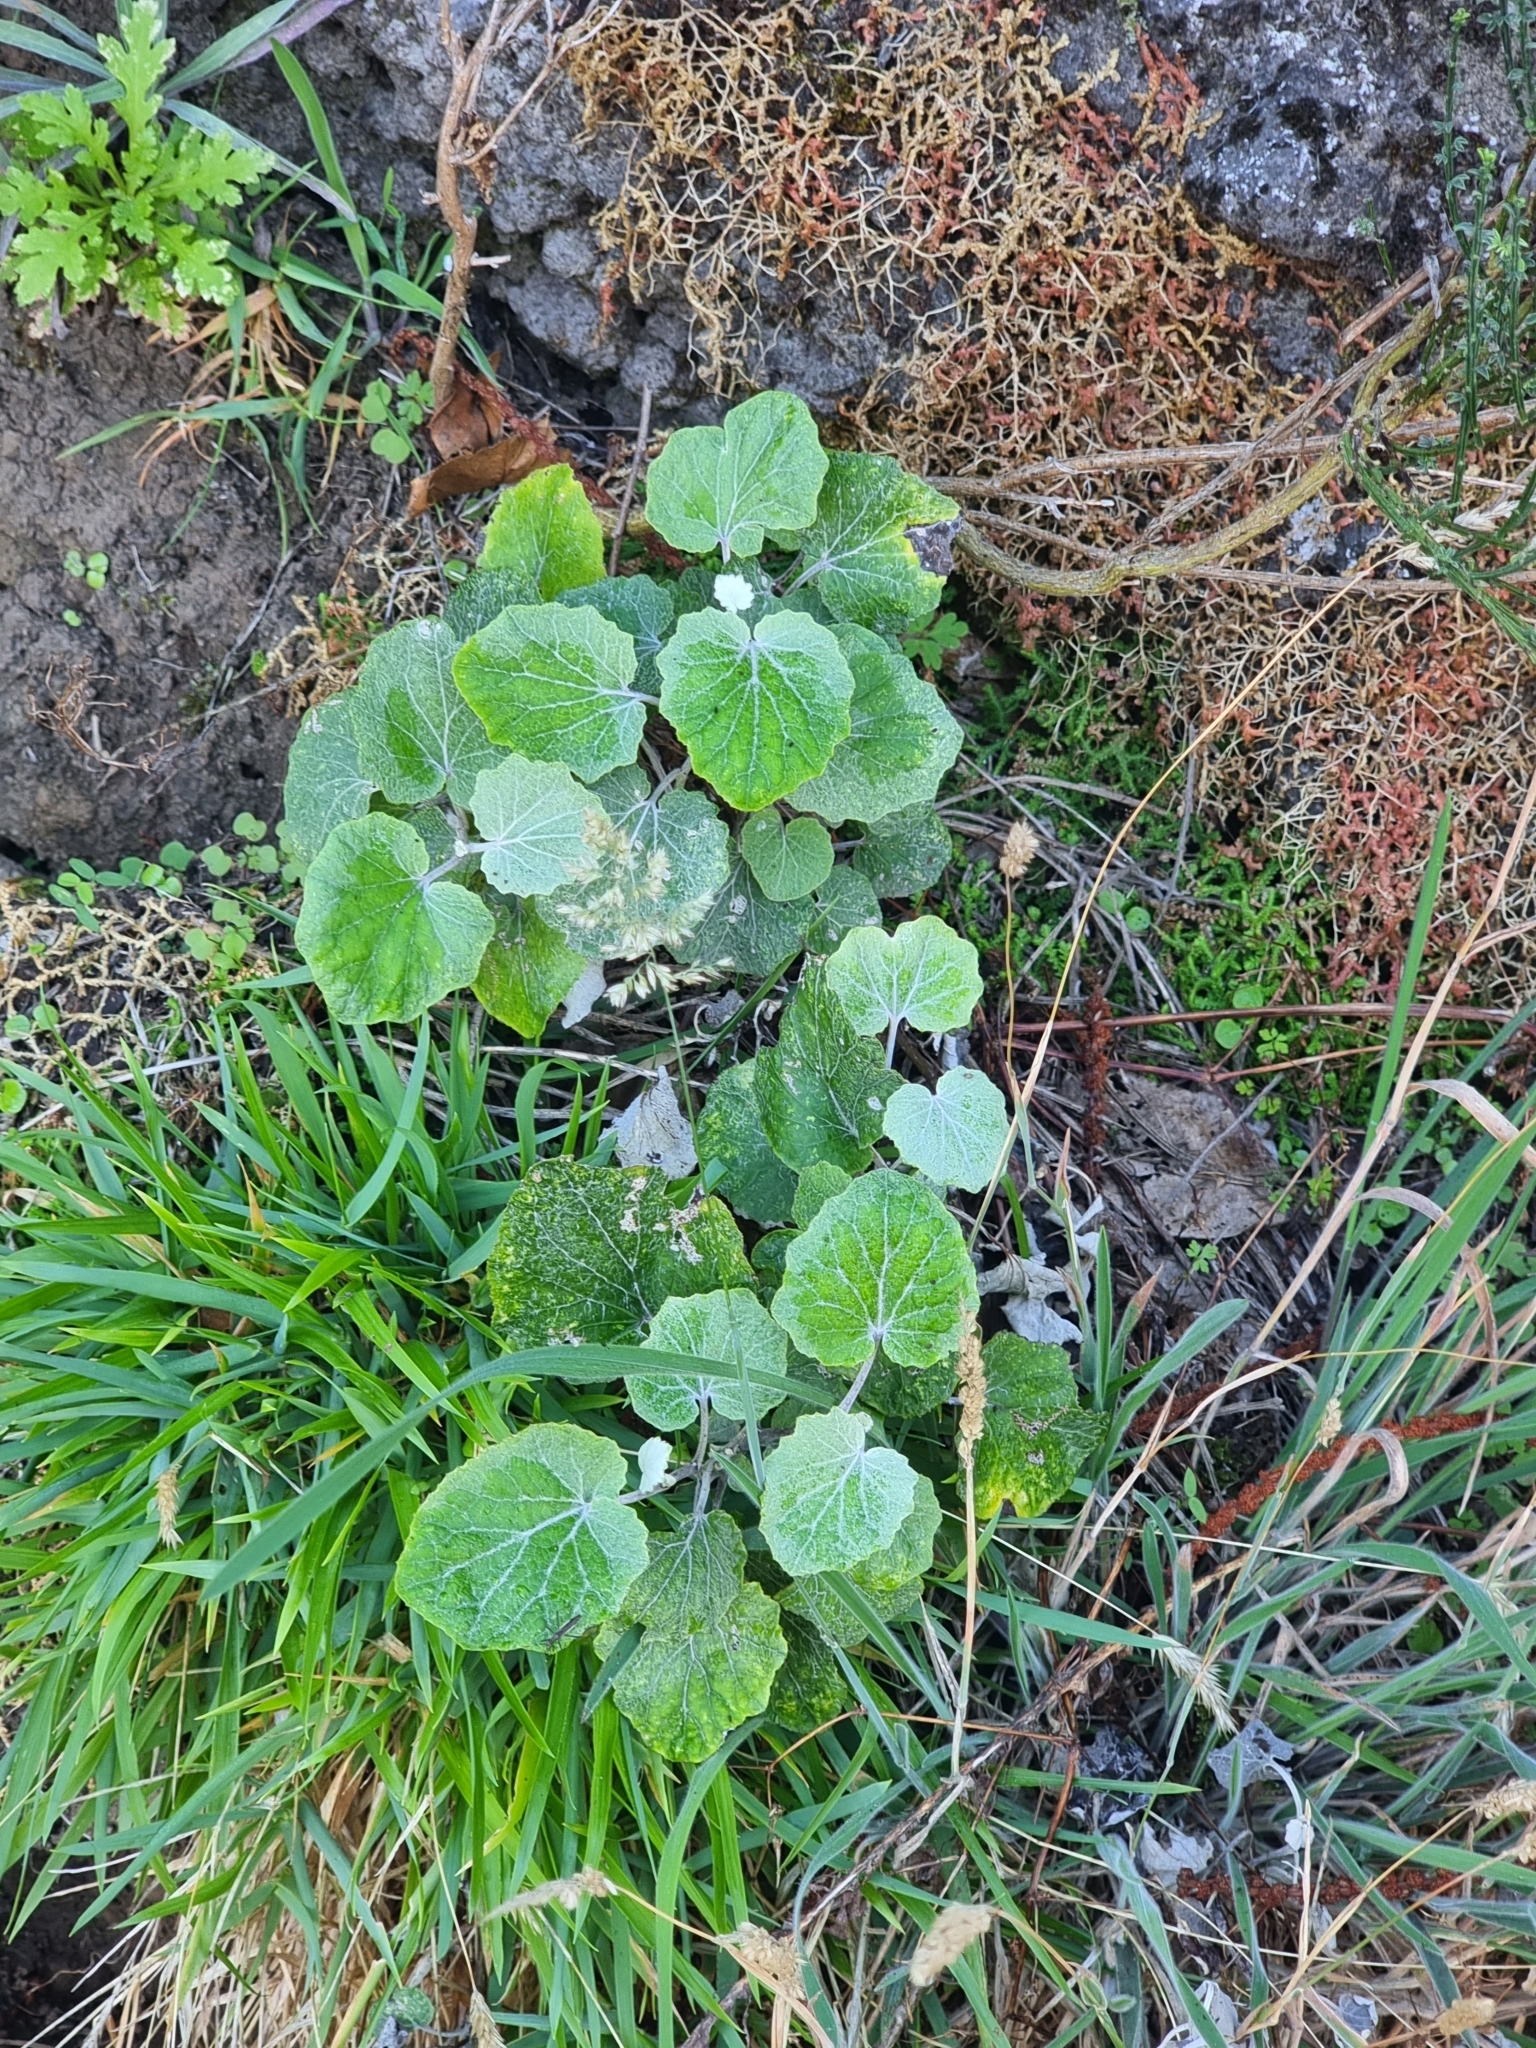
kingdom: Plantae
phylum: Tracheophyta
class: Magnoliopsida
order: Asterales
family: Asteraceae
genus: Pericallis
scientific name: Pericallis aurita
